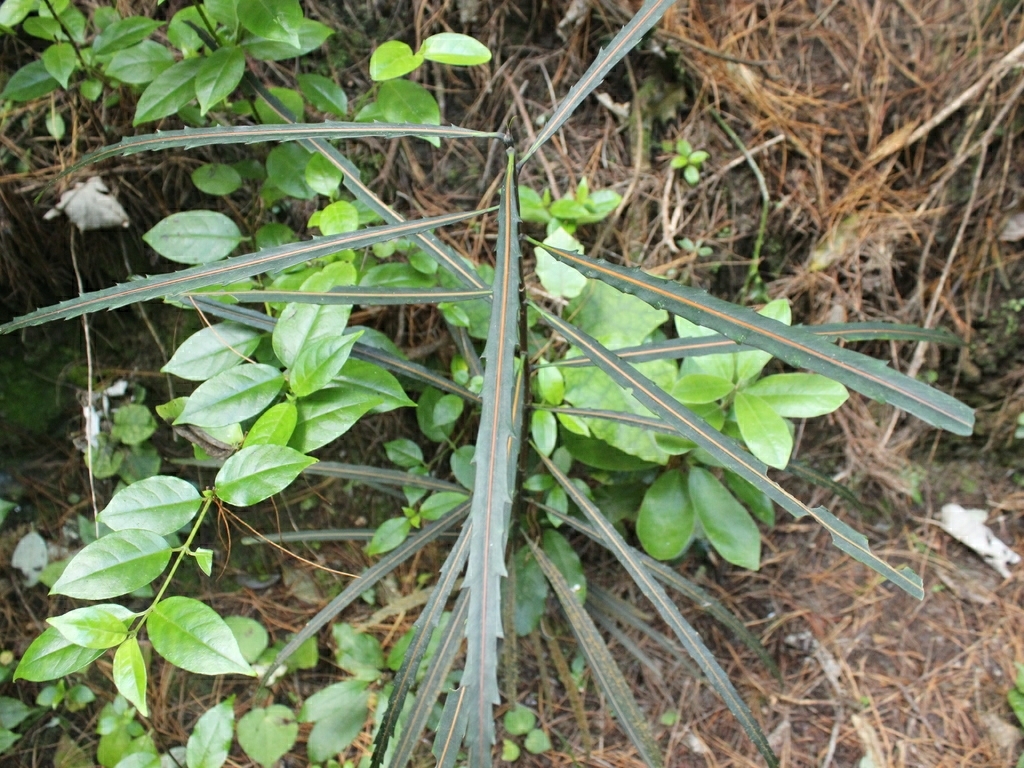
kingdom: Plantae
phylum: Tracheophyta
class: Magnoliopsida
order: Gentianales
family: Loganiaceae
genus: Geniostoma
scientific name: Geniostoma ligustrifolium
